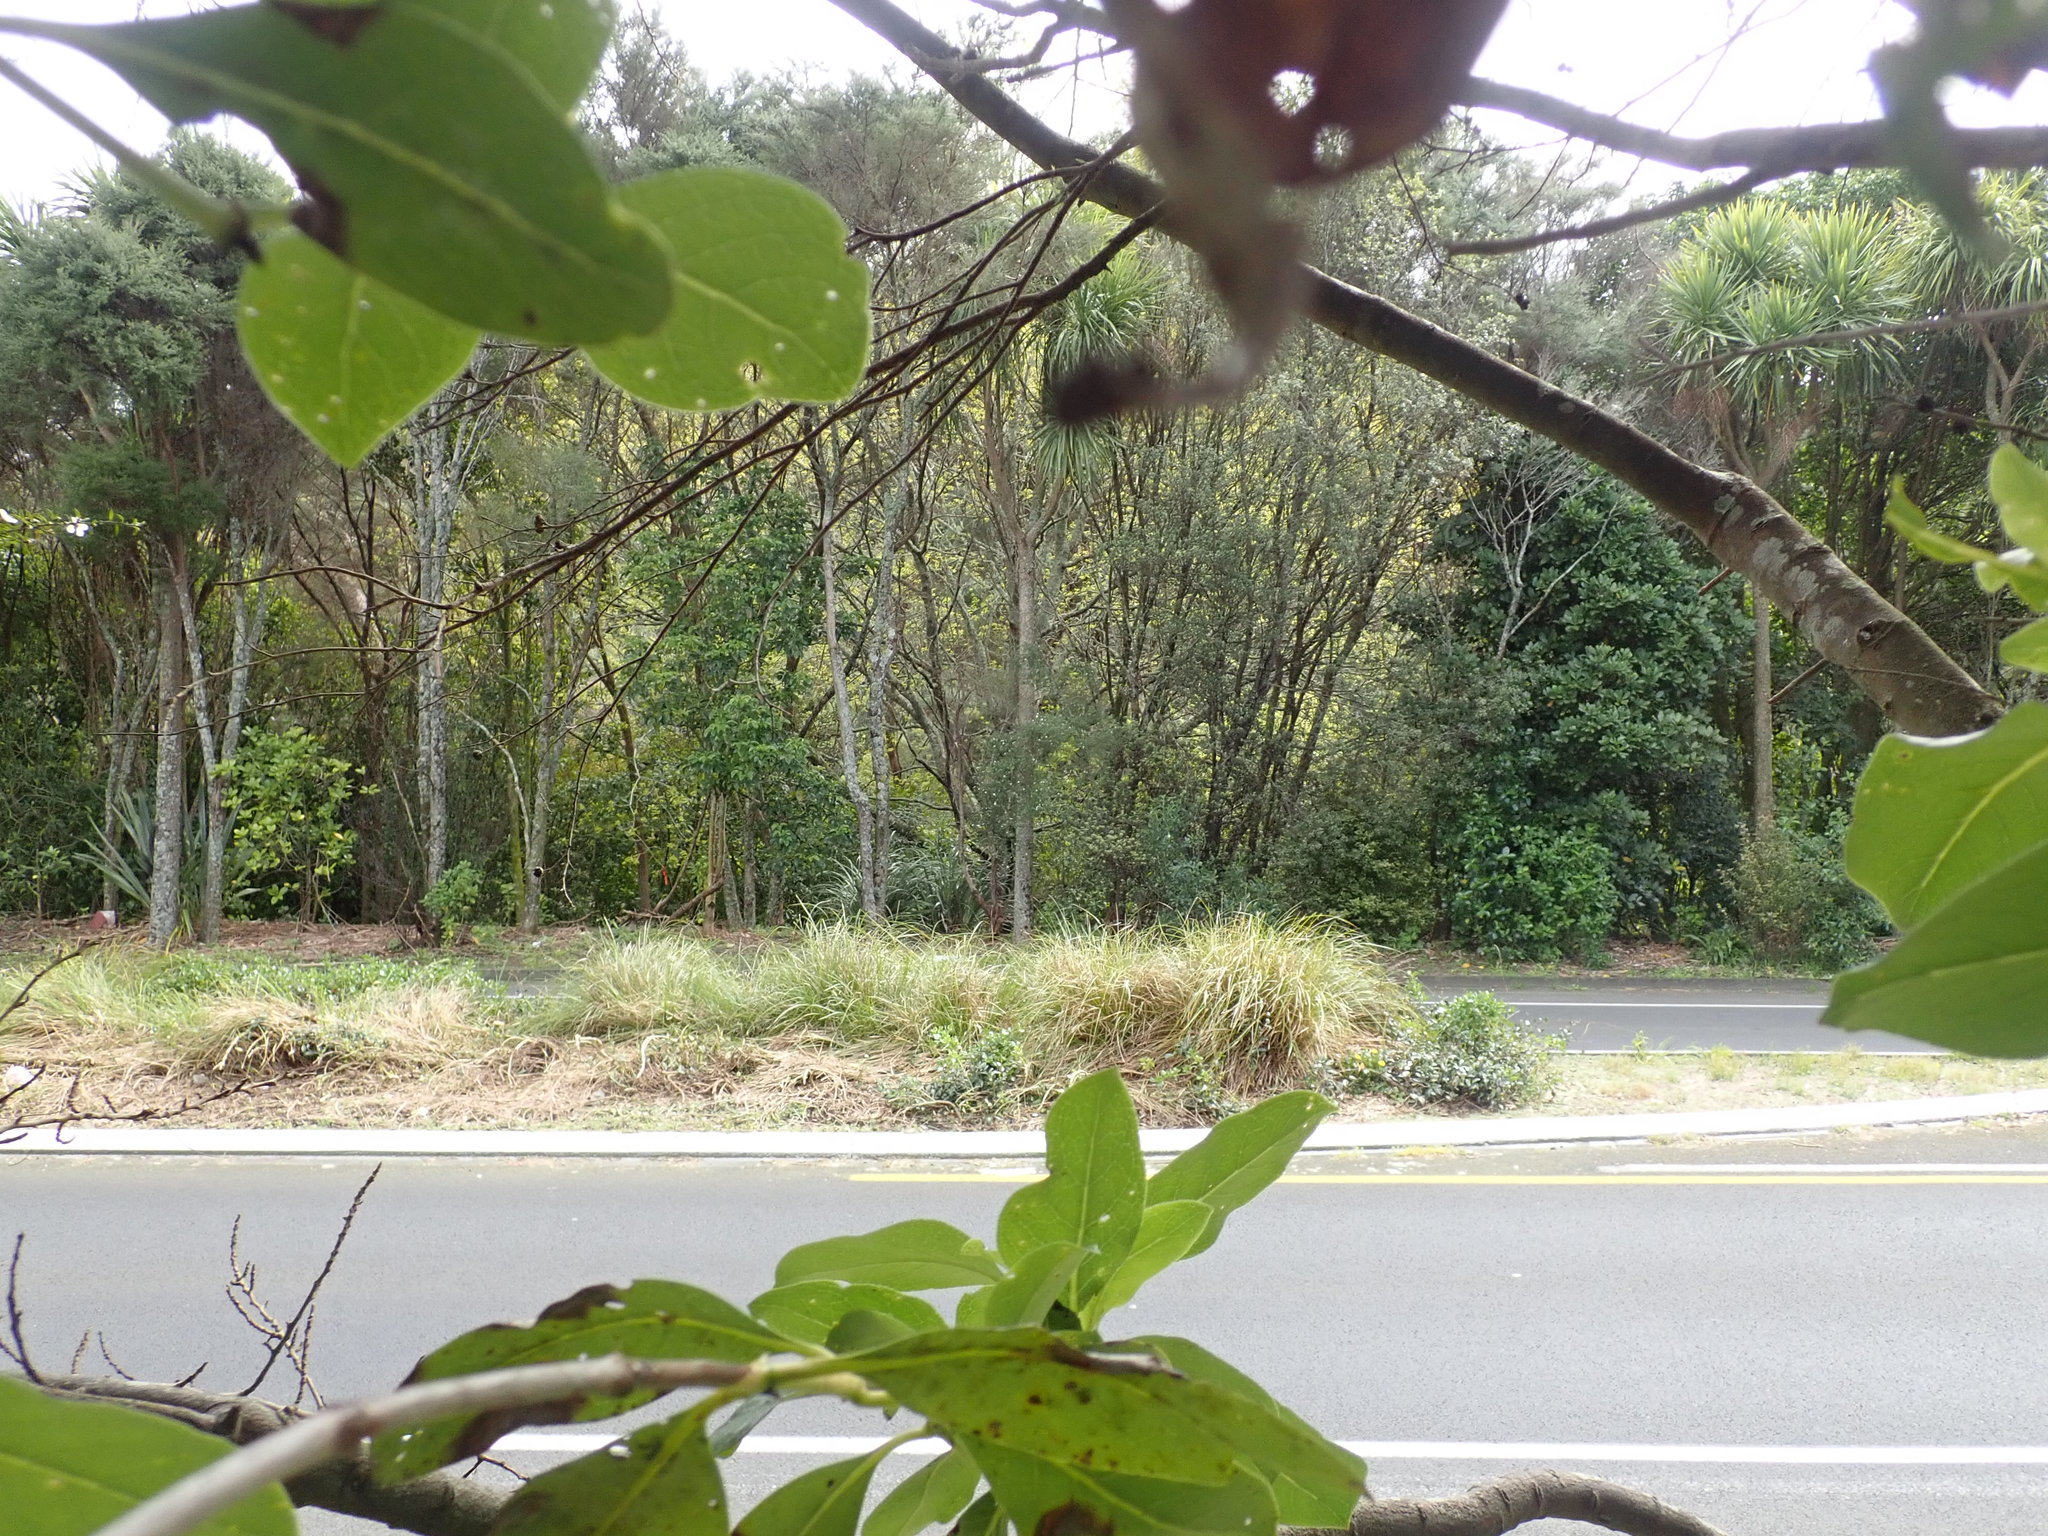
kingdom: Plantae
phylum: Tracheophyta
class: Liliopsida
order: Asparagales
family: Asparagaceae
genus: Cordyline
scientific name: Cordyline australis
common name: Cabbage-palm
